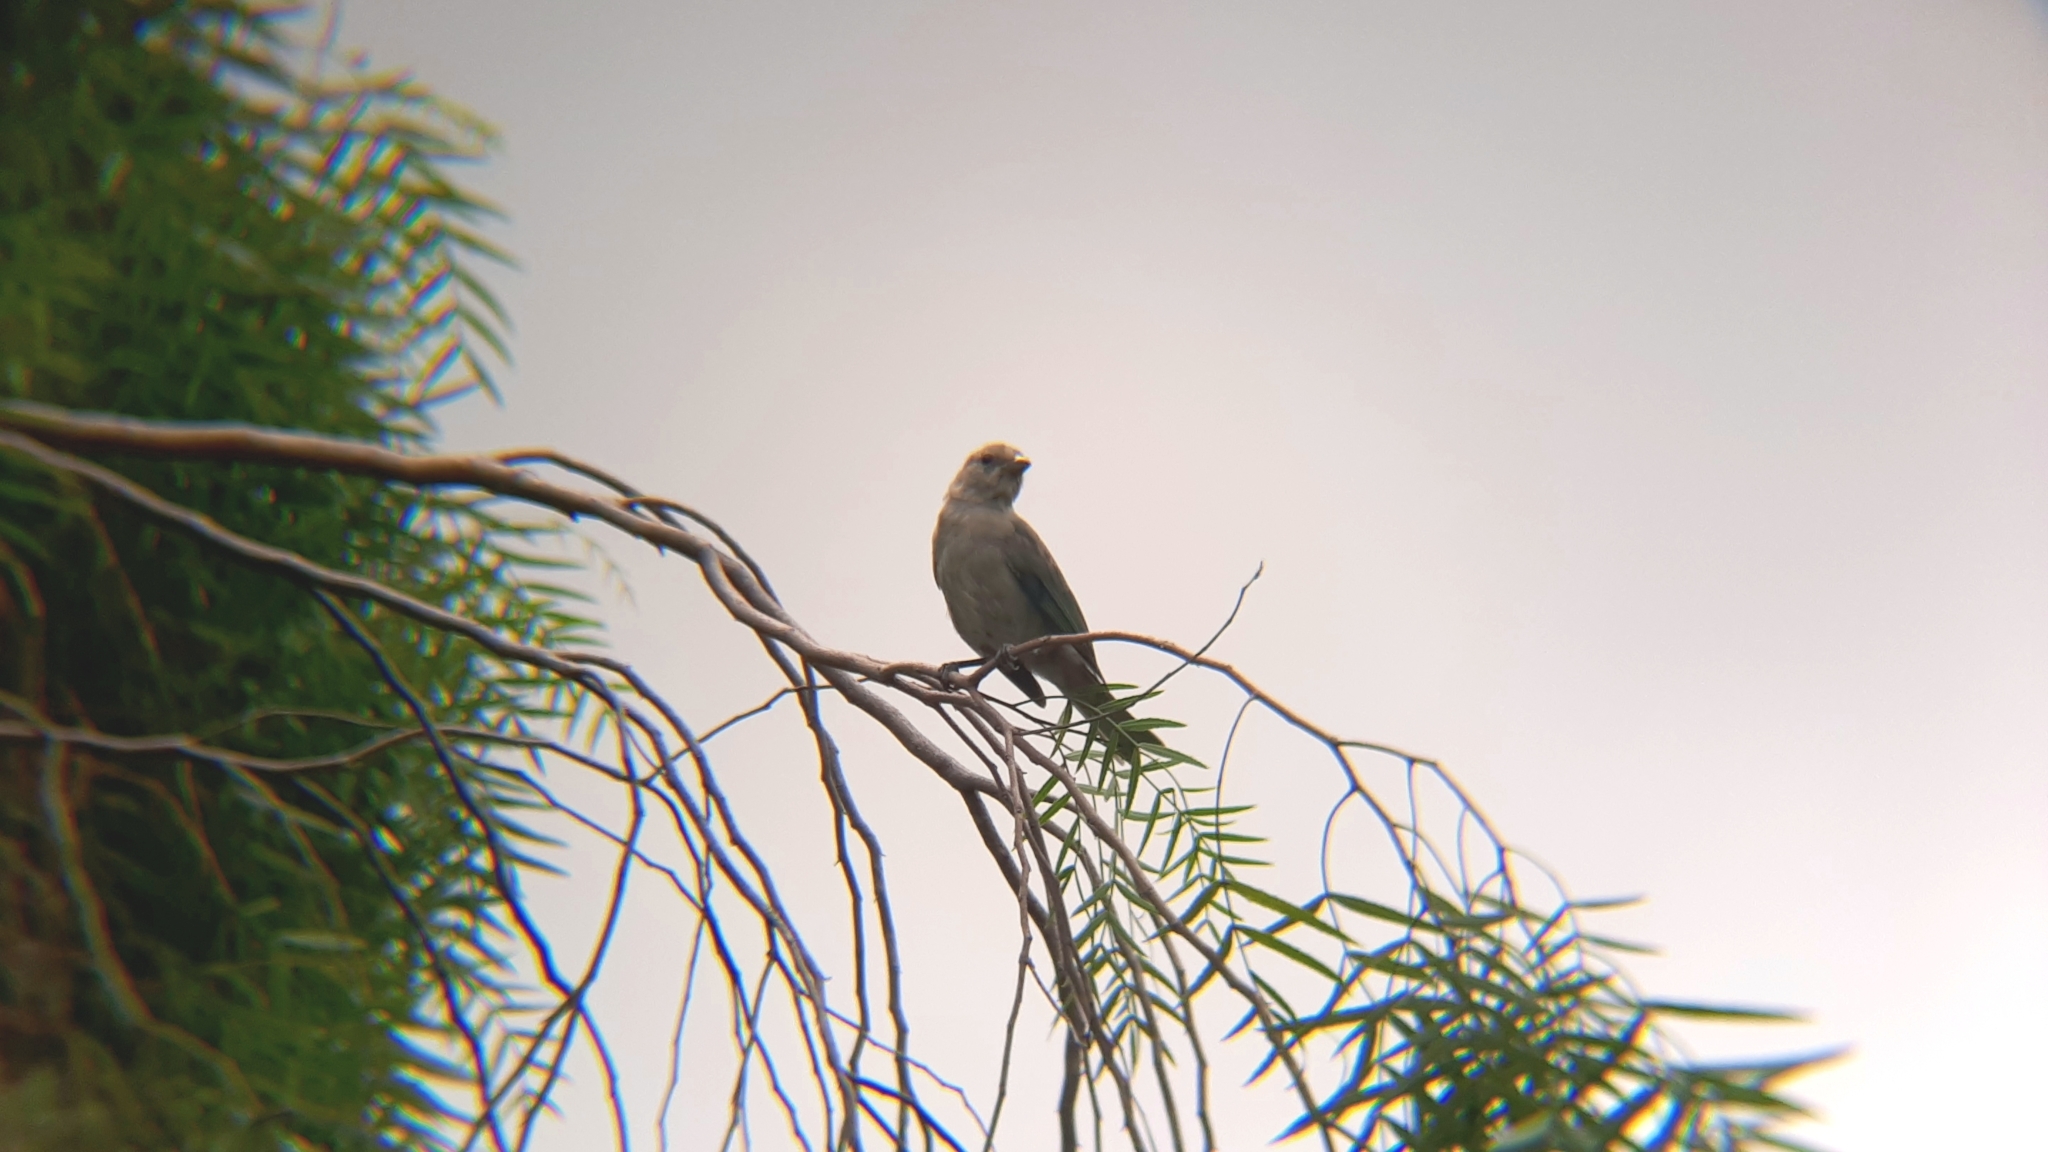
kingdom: Animalia
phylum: Chordata
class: Aves
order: Passeriformes
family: Thraupidae
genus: Thraupis
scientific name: Thraupis sayaca
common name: Sayaca tanager
